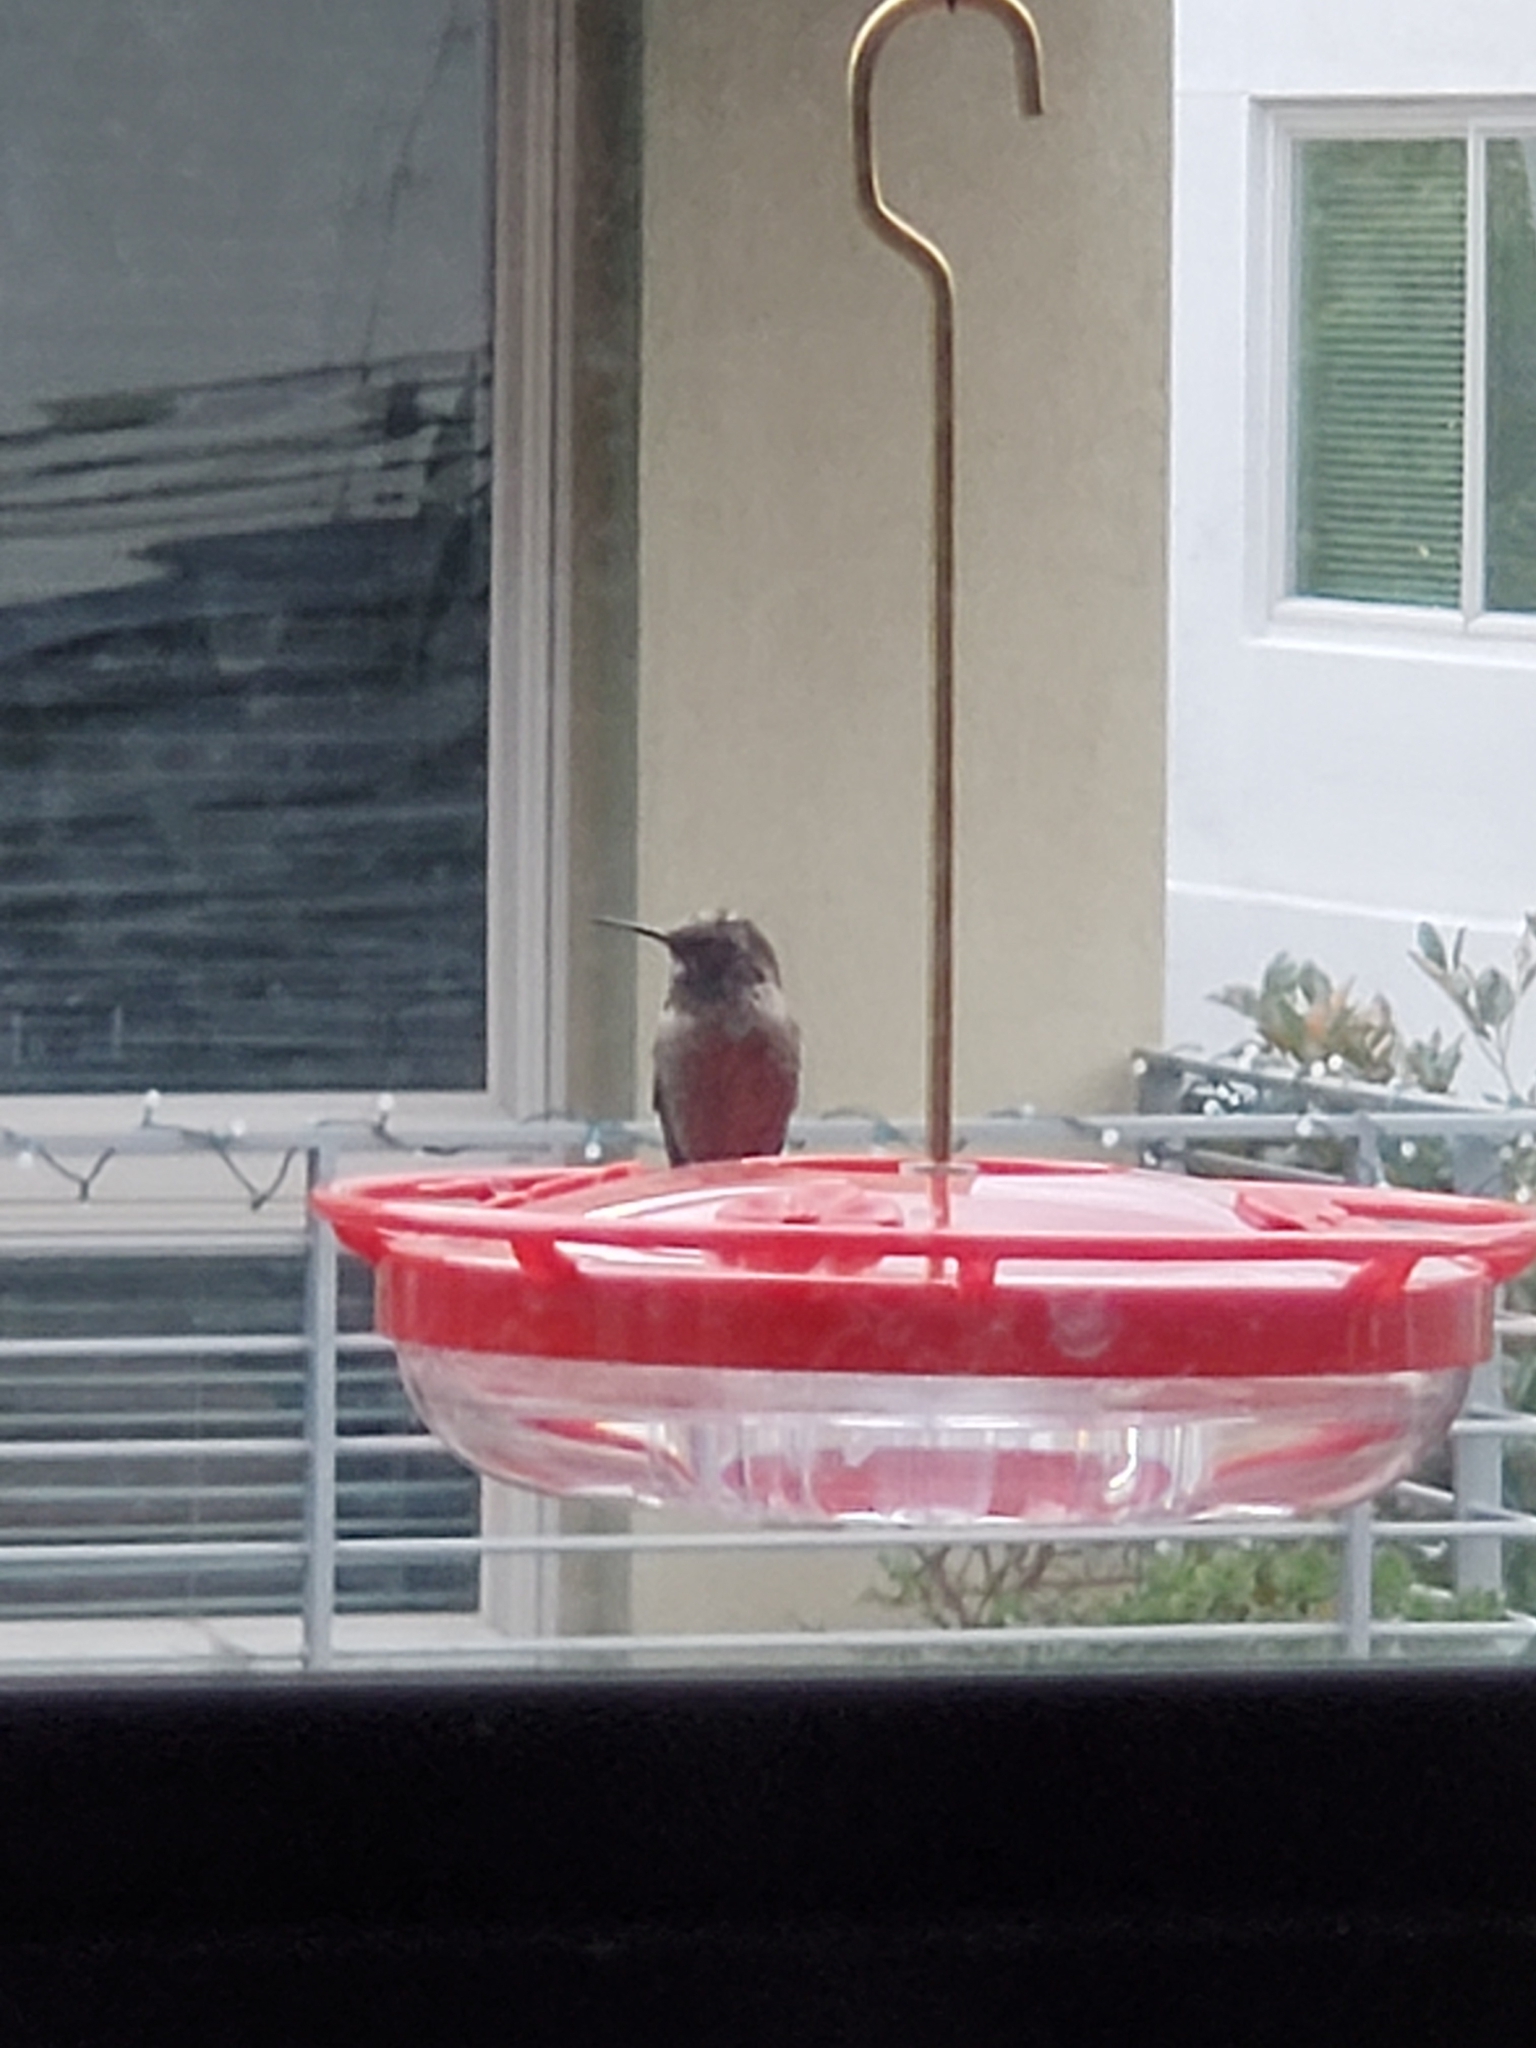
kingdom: Animalia
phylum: Chordata
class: Aves
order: Apodiformes
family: Trochilidae
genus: Calypte
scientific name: Calypte anna
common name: Anna's hummingbird
